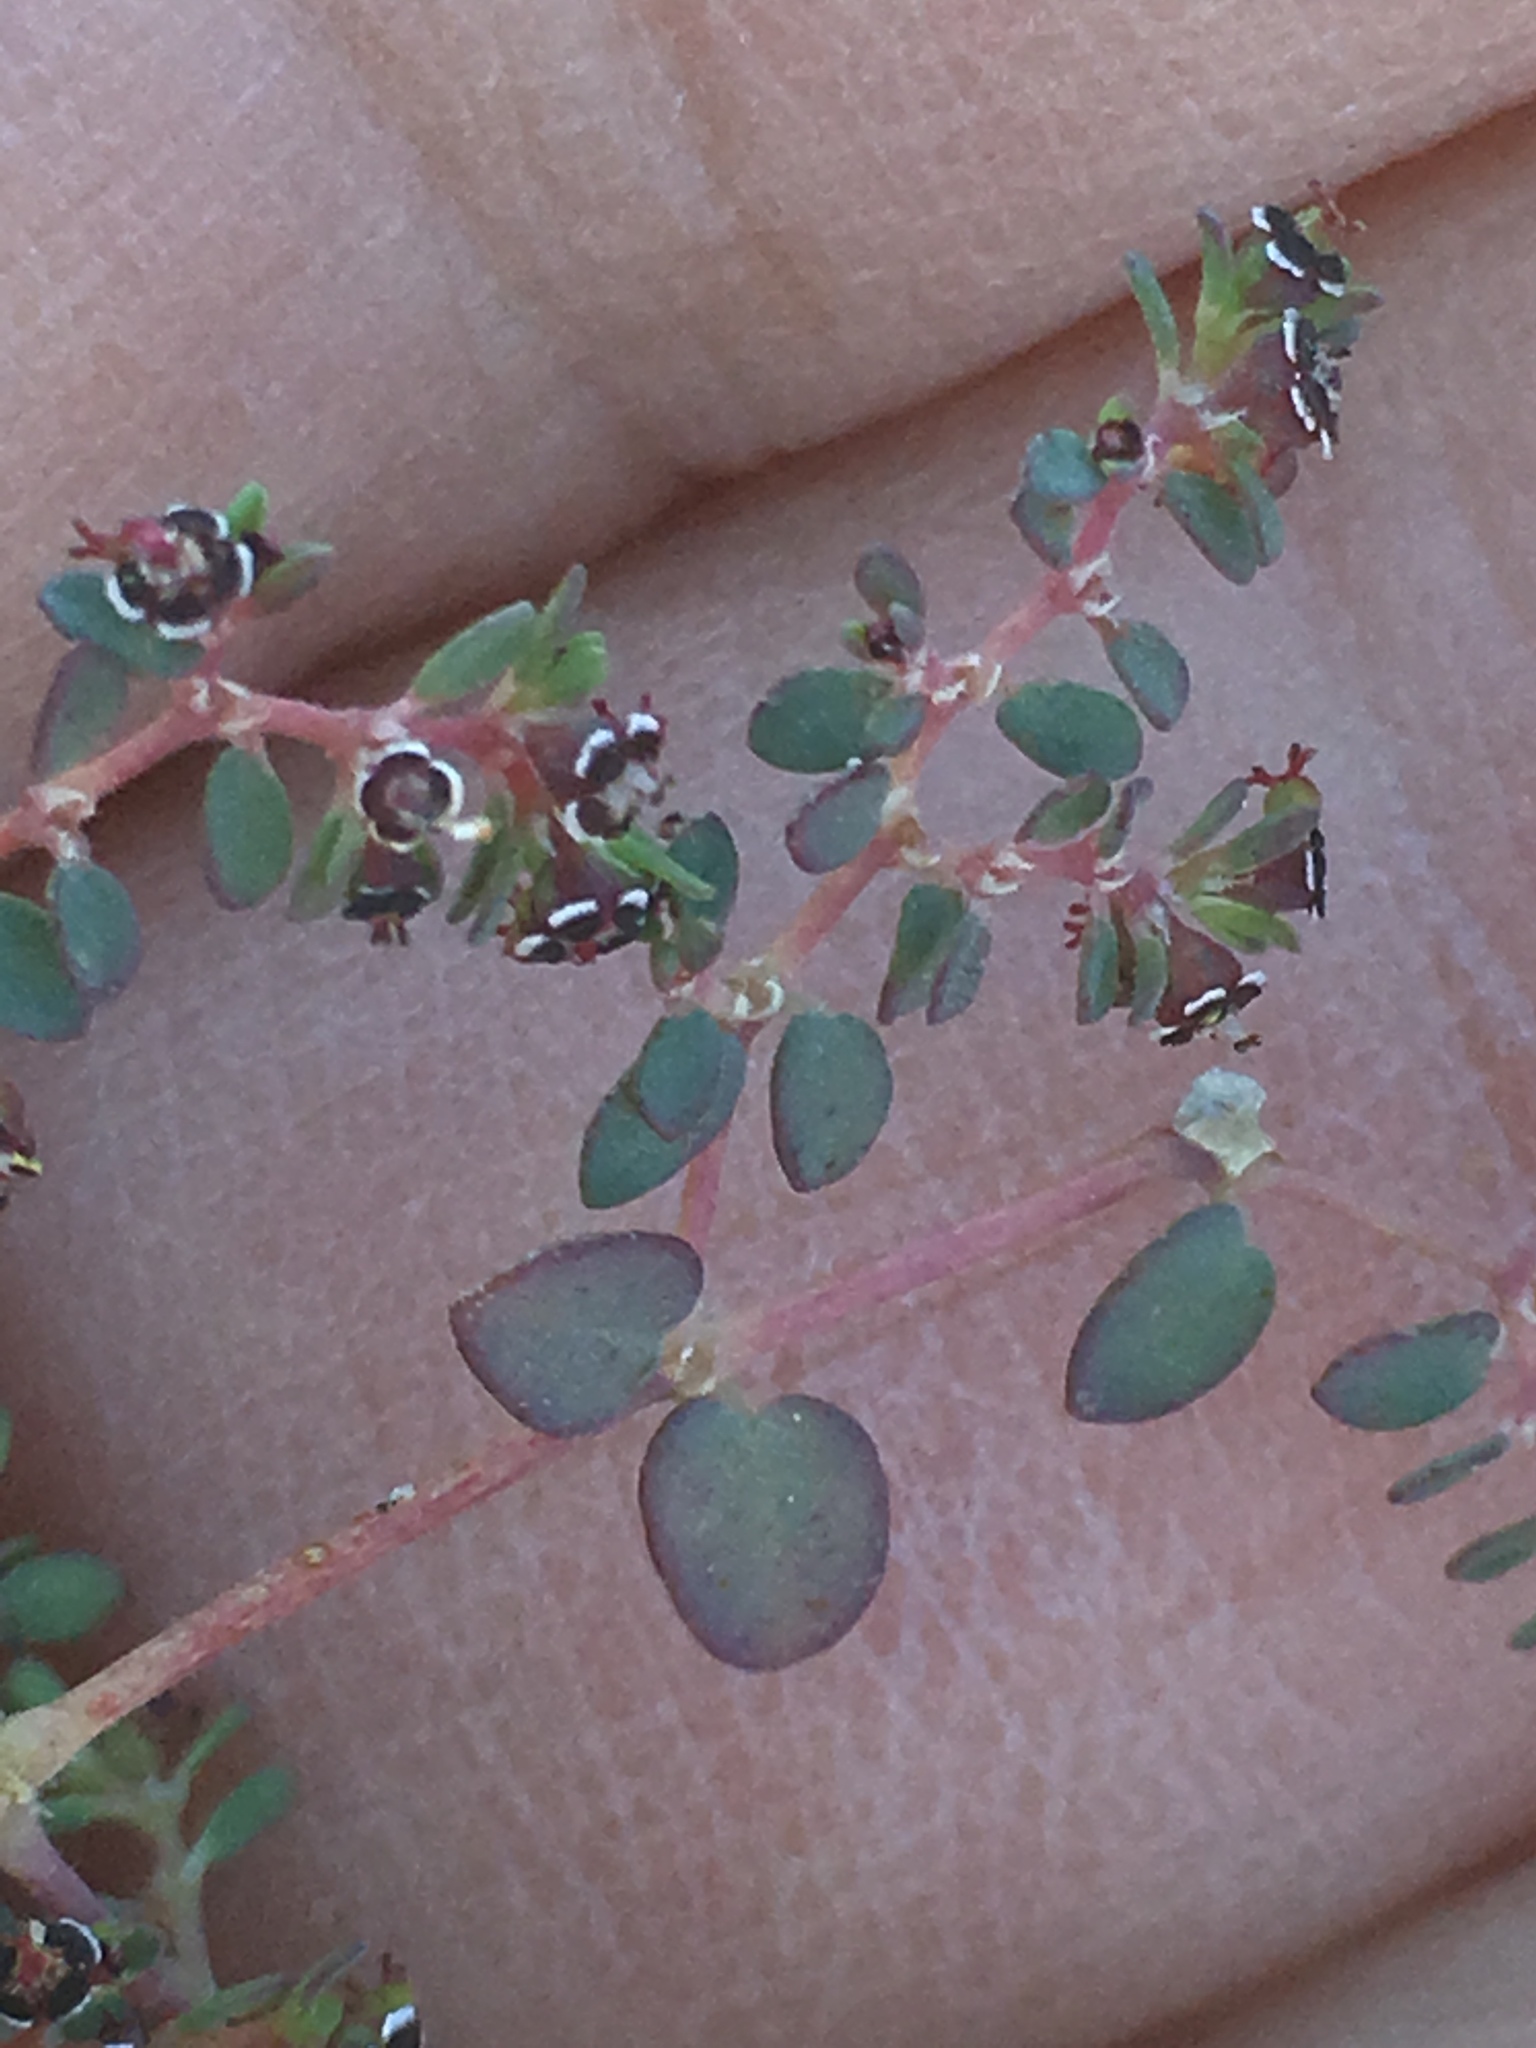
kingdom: Plantae
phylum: Tracheophyta
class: Magnoliopsida
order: Malpighiales
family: Euphorbiaceae
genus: Euphorbia
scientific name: Euphorbia polycarpa
